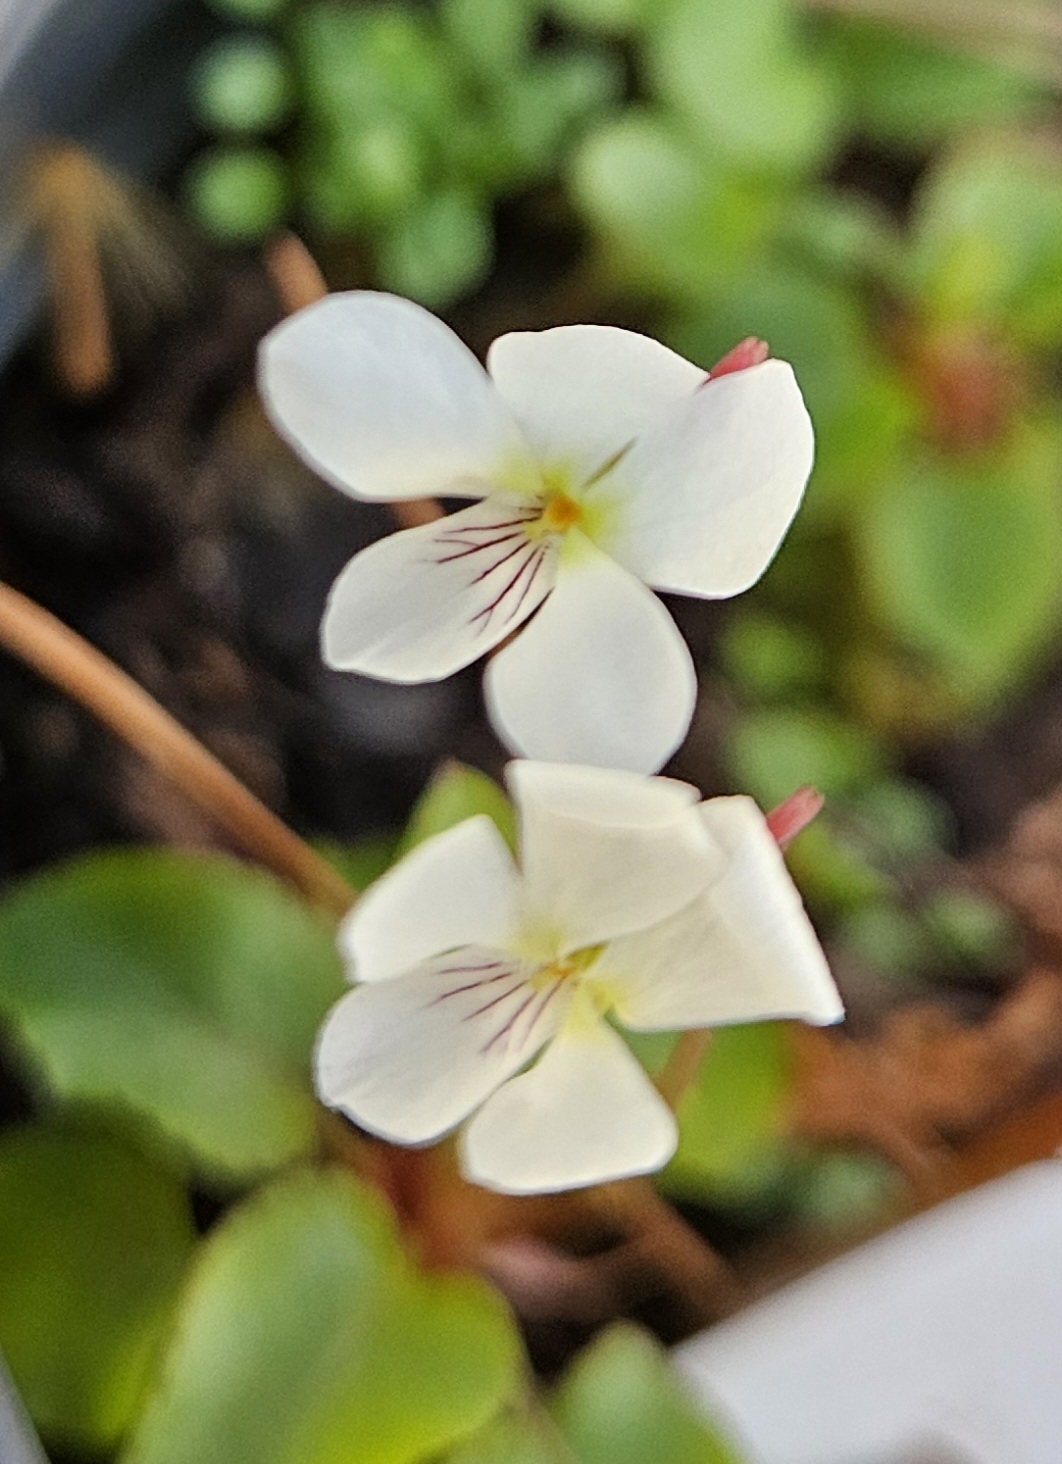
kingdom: Plantae
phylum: Tracheophyta
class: Magnoliopsida
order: Malpighiales
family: Violaceae
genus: Viola
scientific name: Viola primulifolia
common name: Primrose-leaf violet
